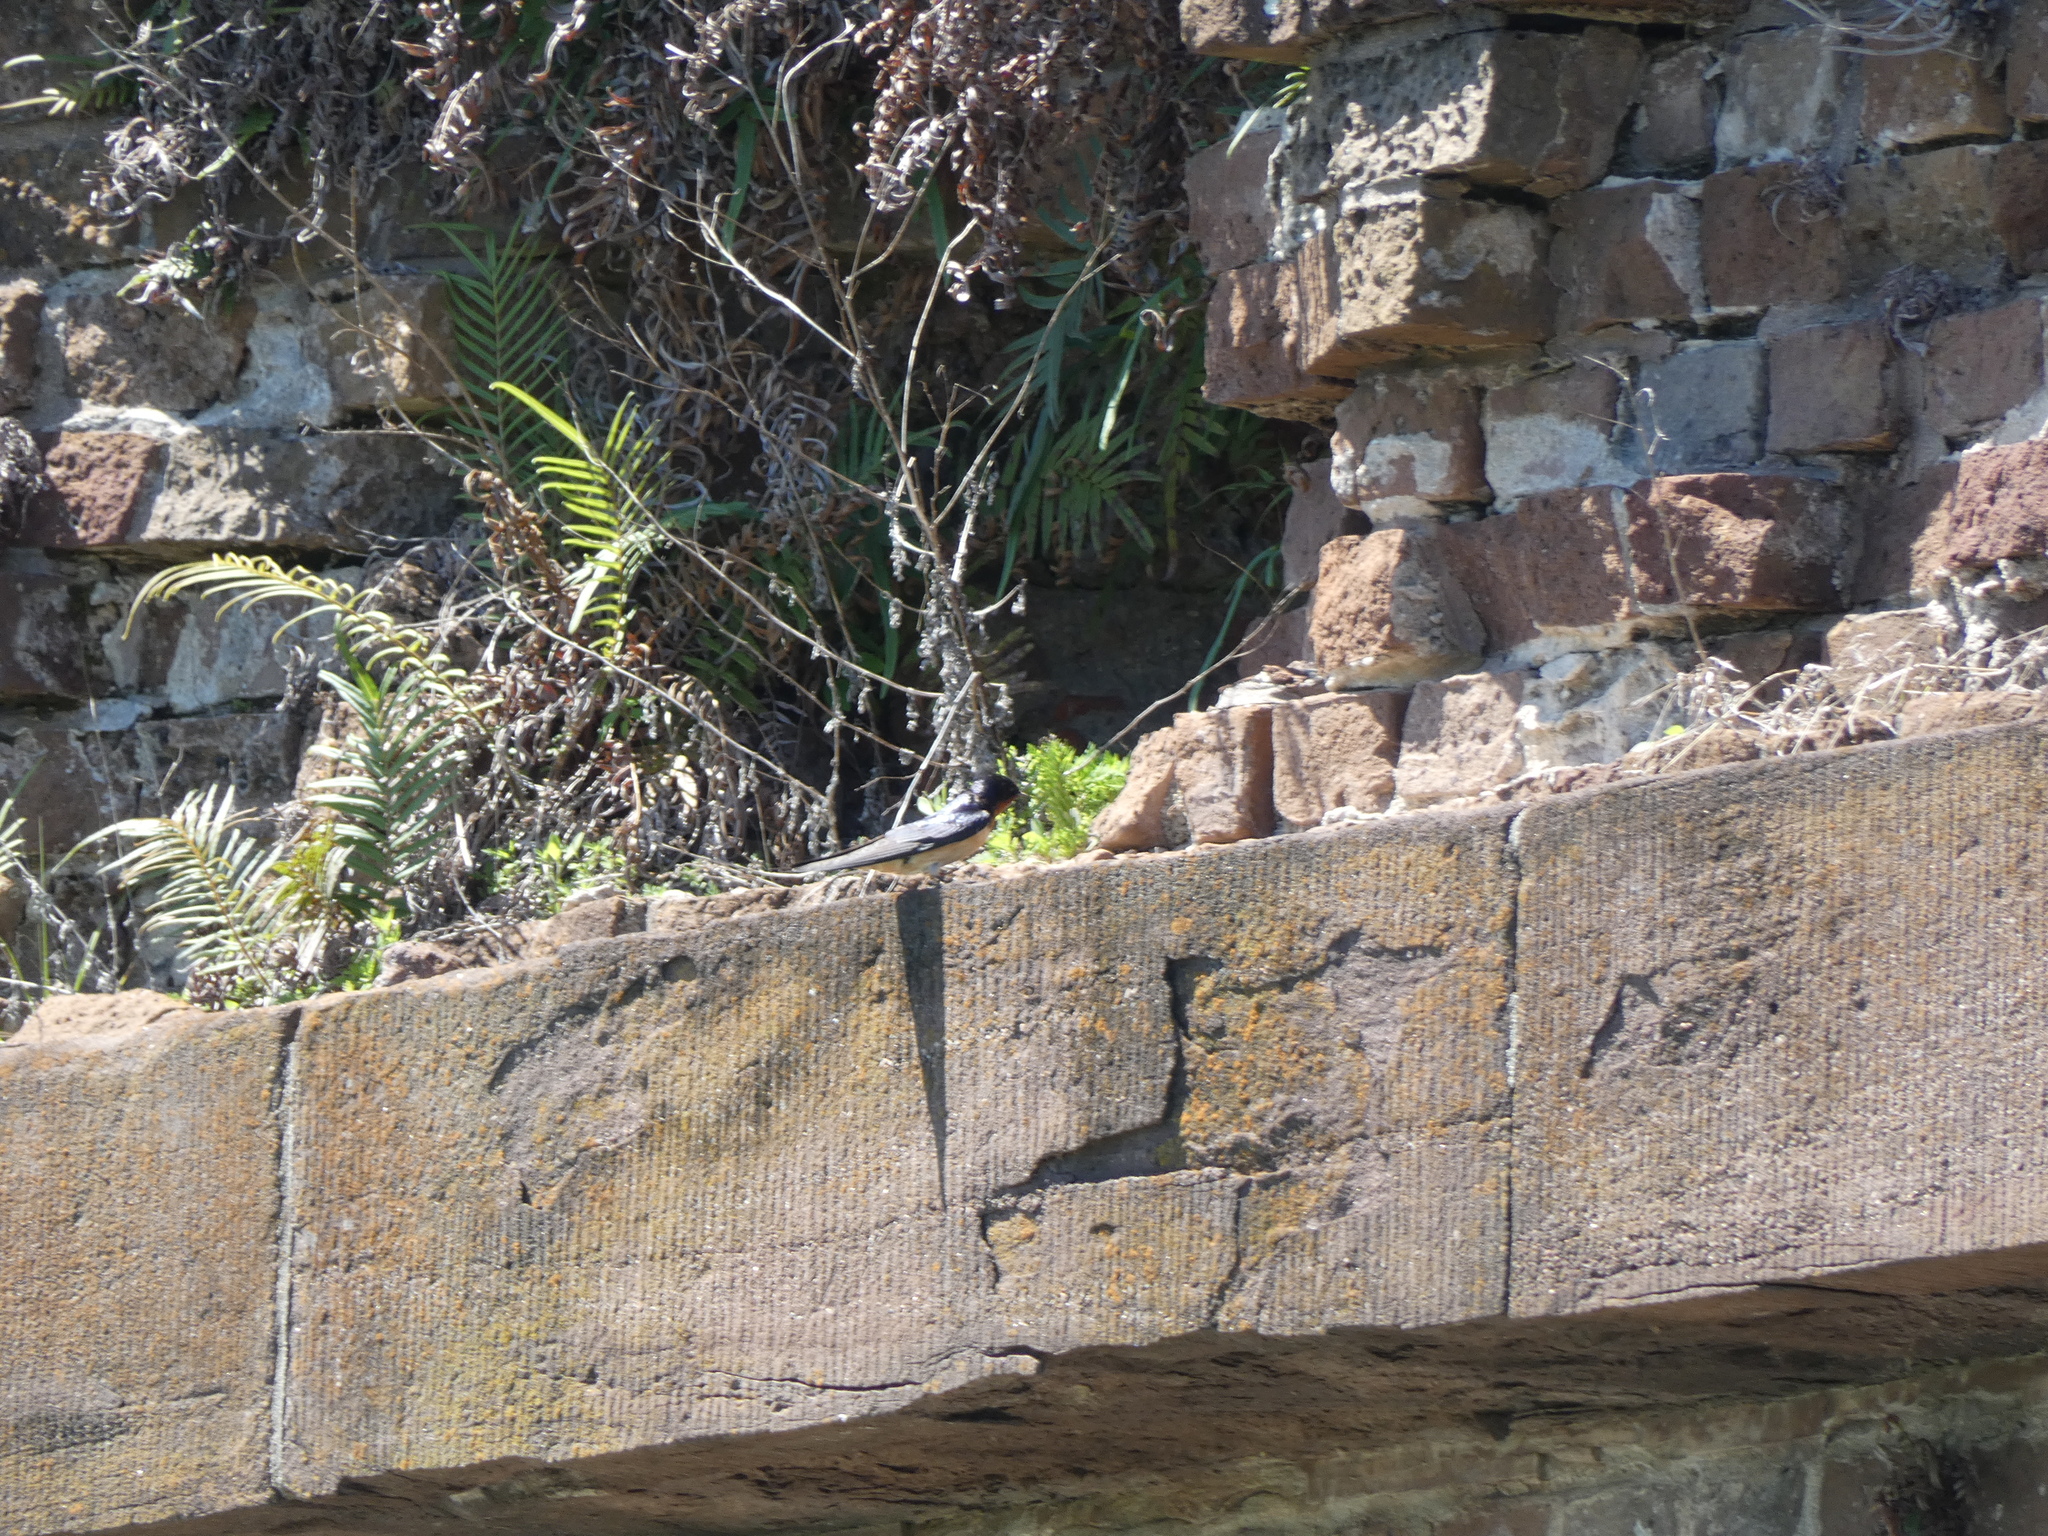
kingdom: Animalia
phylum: Chordata
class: Aves
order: Passeriformes
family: Hirundinidae
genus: Hirundo
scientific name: Hirundo rustica
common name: Barn swallow
